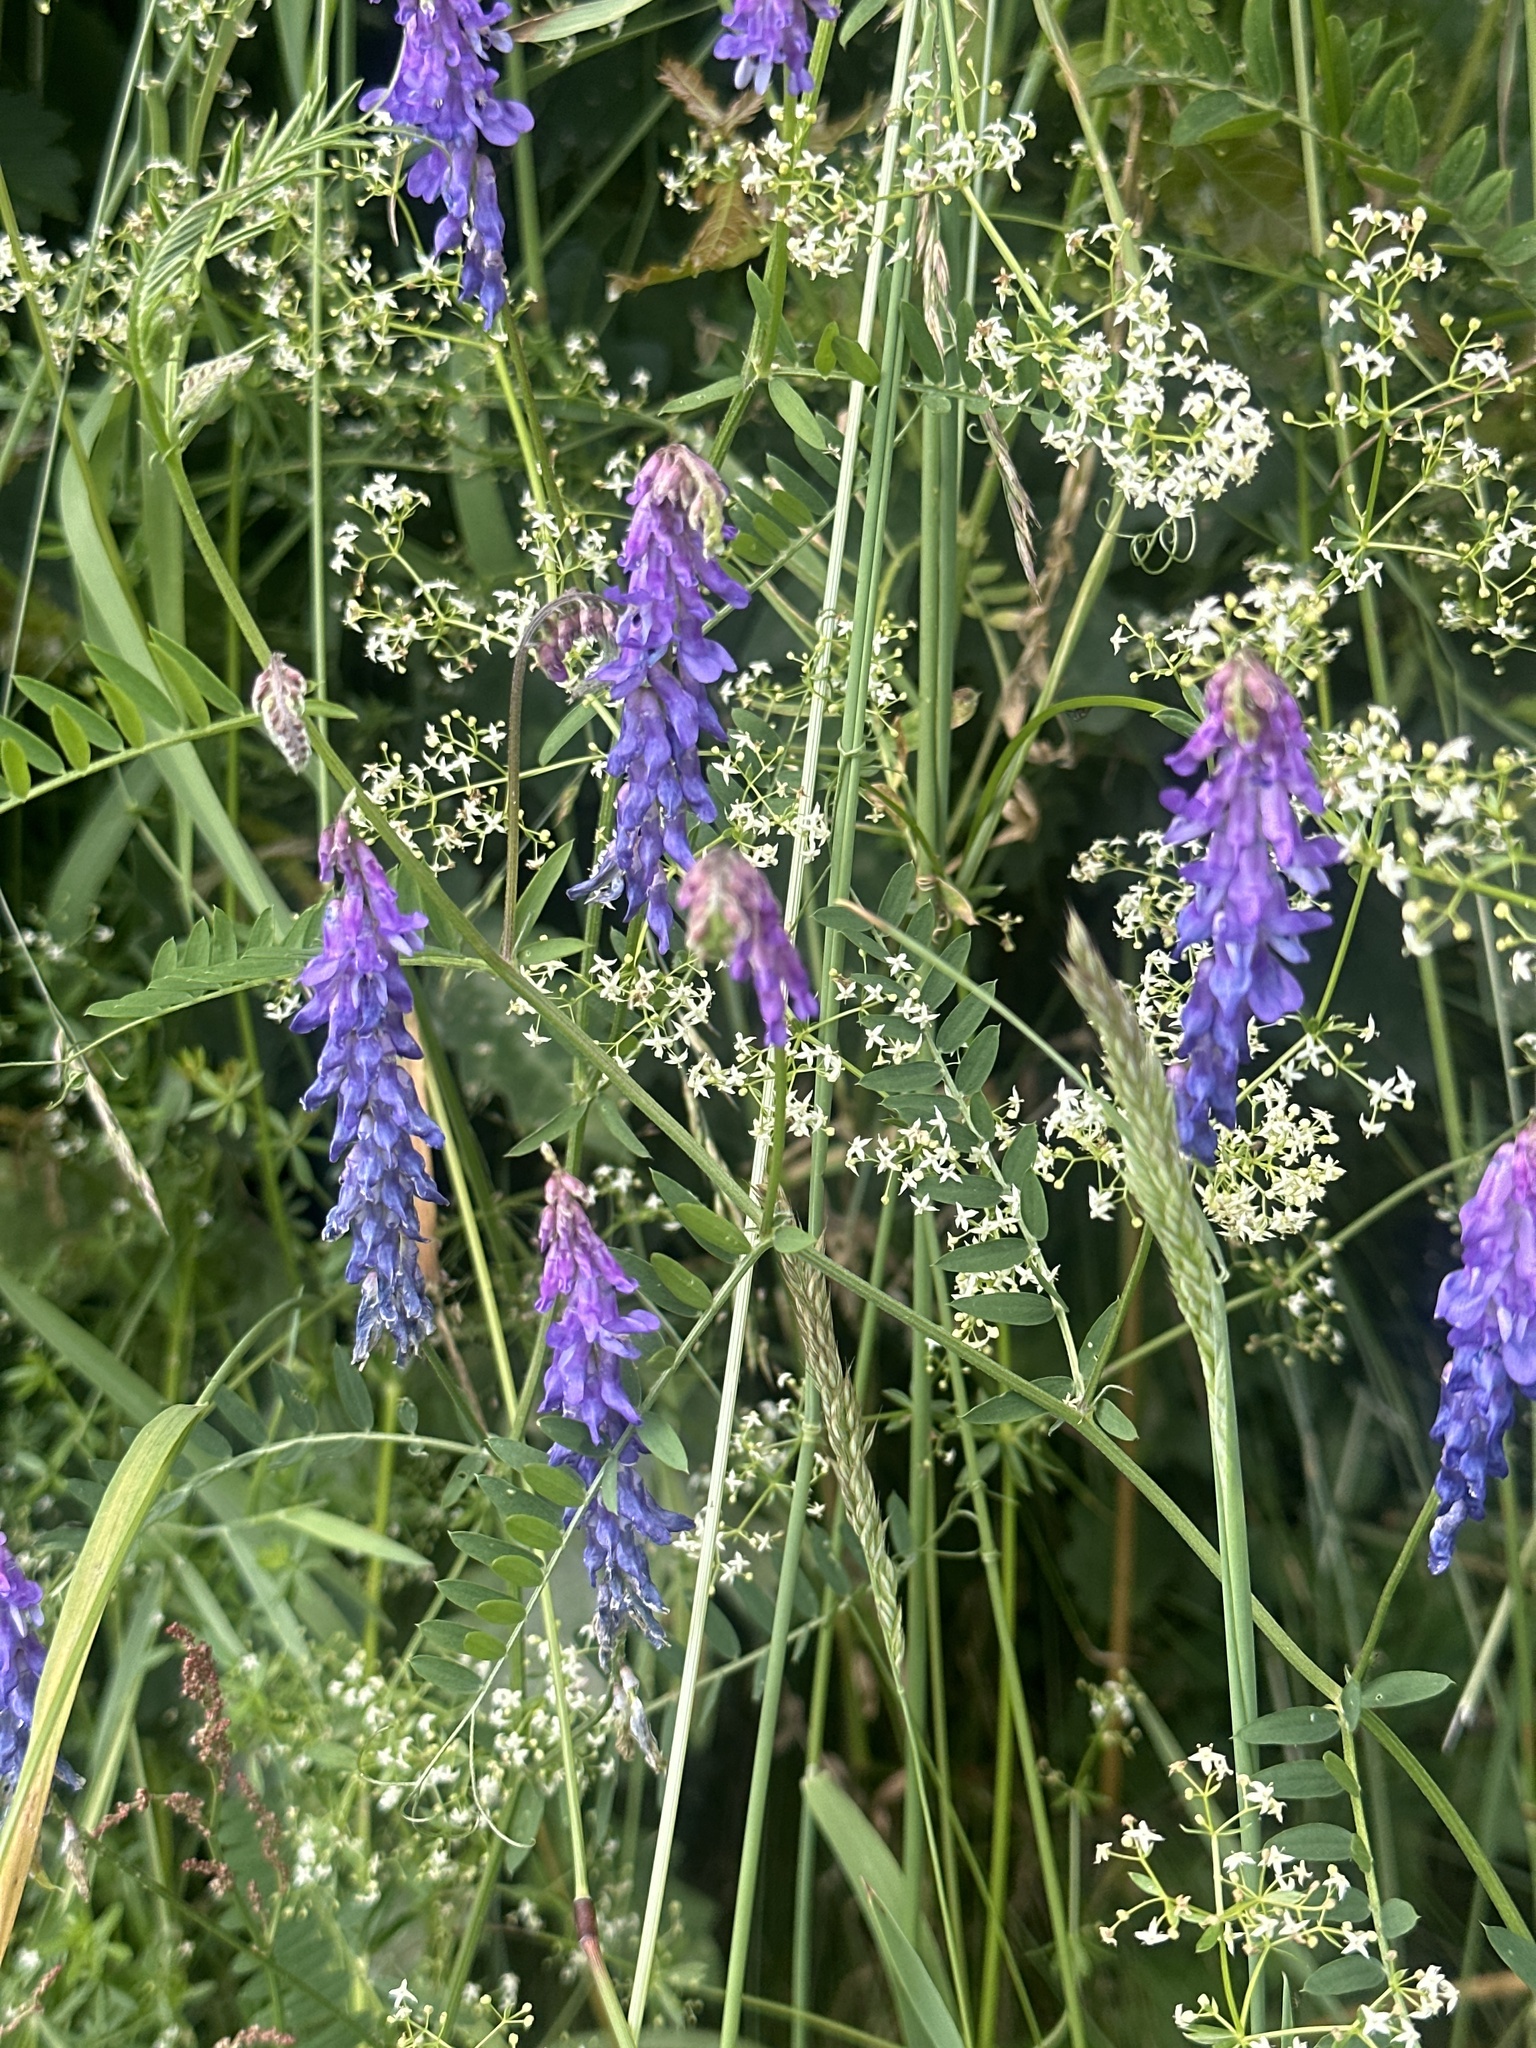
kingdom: Plantae
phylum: Tracheophyta
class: Magnoliopsida
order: Fabales
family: Fabaceae
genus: Vicia
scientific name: Vicia cracca
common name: Bird vetch
